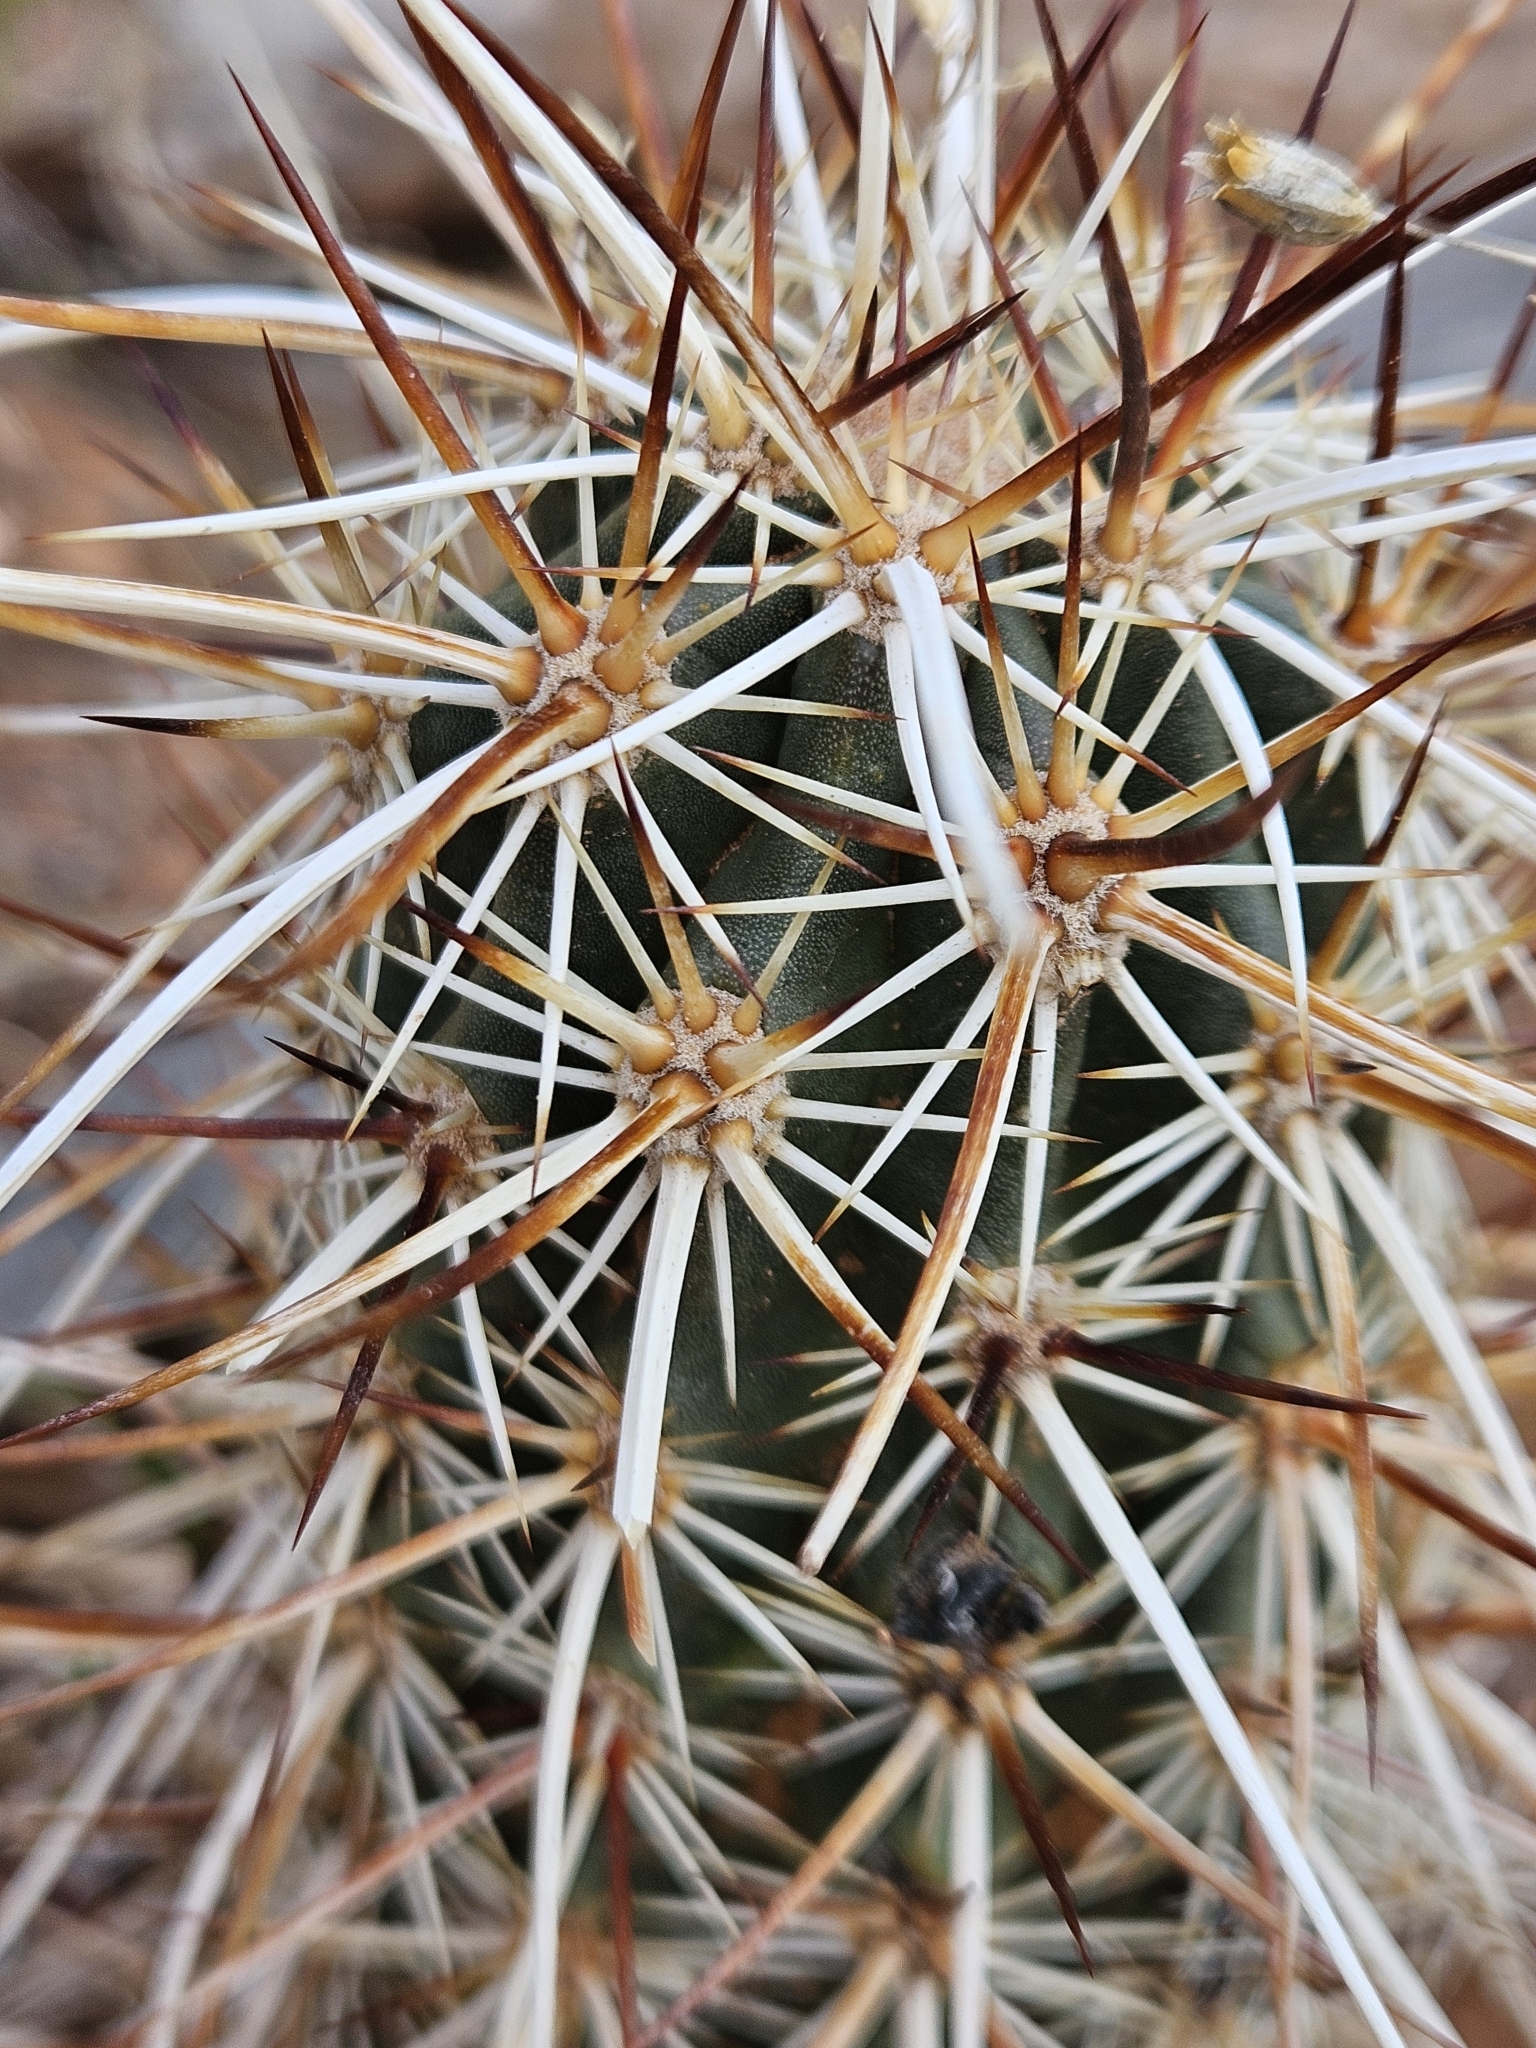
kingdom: Plantae
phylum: Tracheophyta
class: Magnoliopsida
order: Caryophyllales
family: Cactaceae
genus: Echinocereus
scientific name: Echinocereus engelmannii
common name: Engelmann's hedgehog cactus
